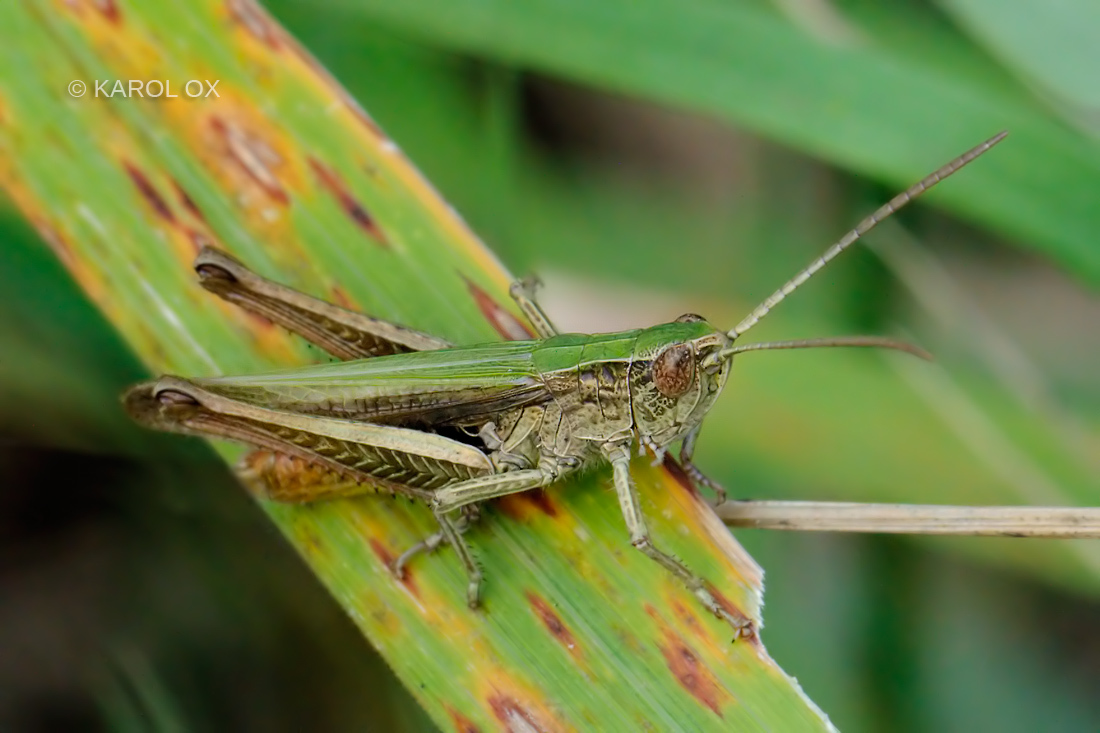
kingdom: Animalia
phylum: Arthropoda
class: Insecta
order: Orthoptera
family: Acrididae
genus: Chorthippus
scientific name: Chorthippus dorsatus
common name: Steppe grasshopper
